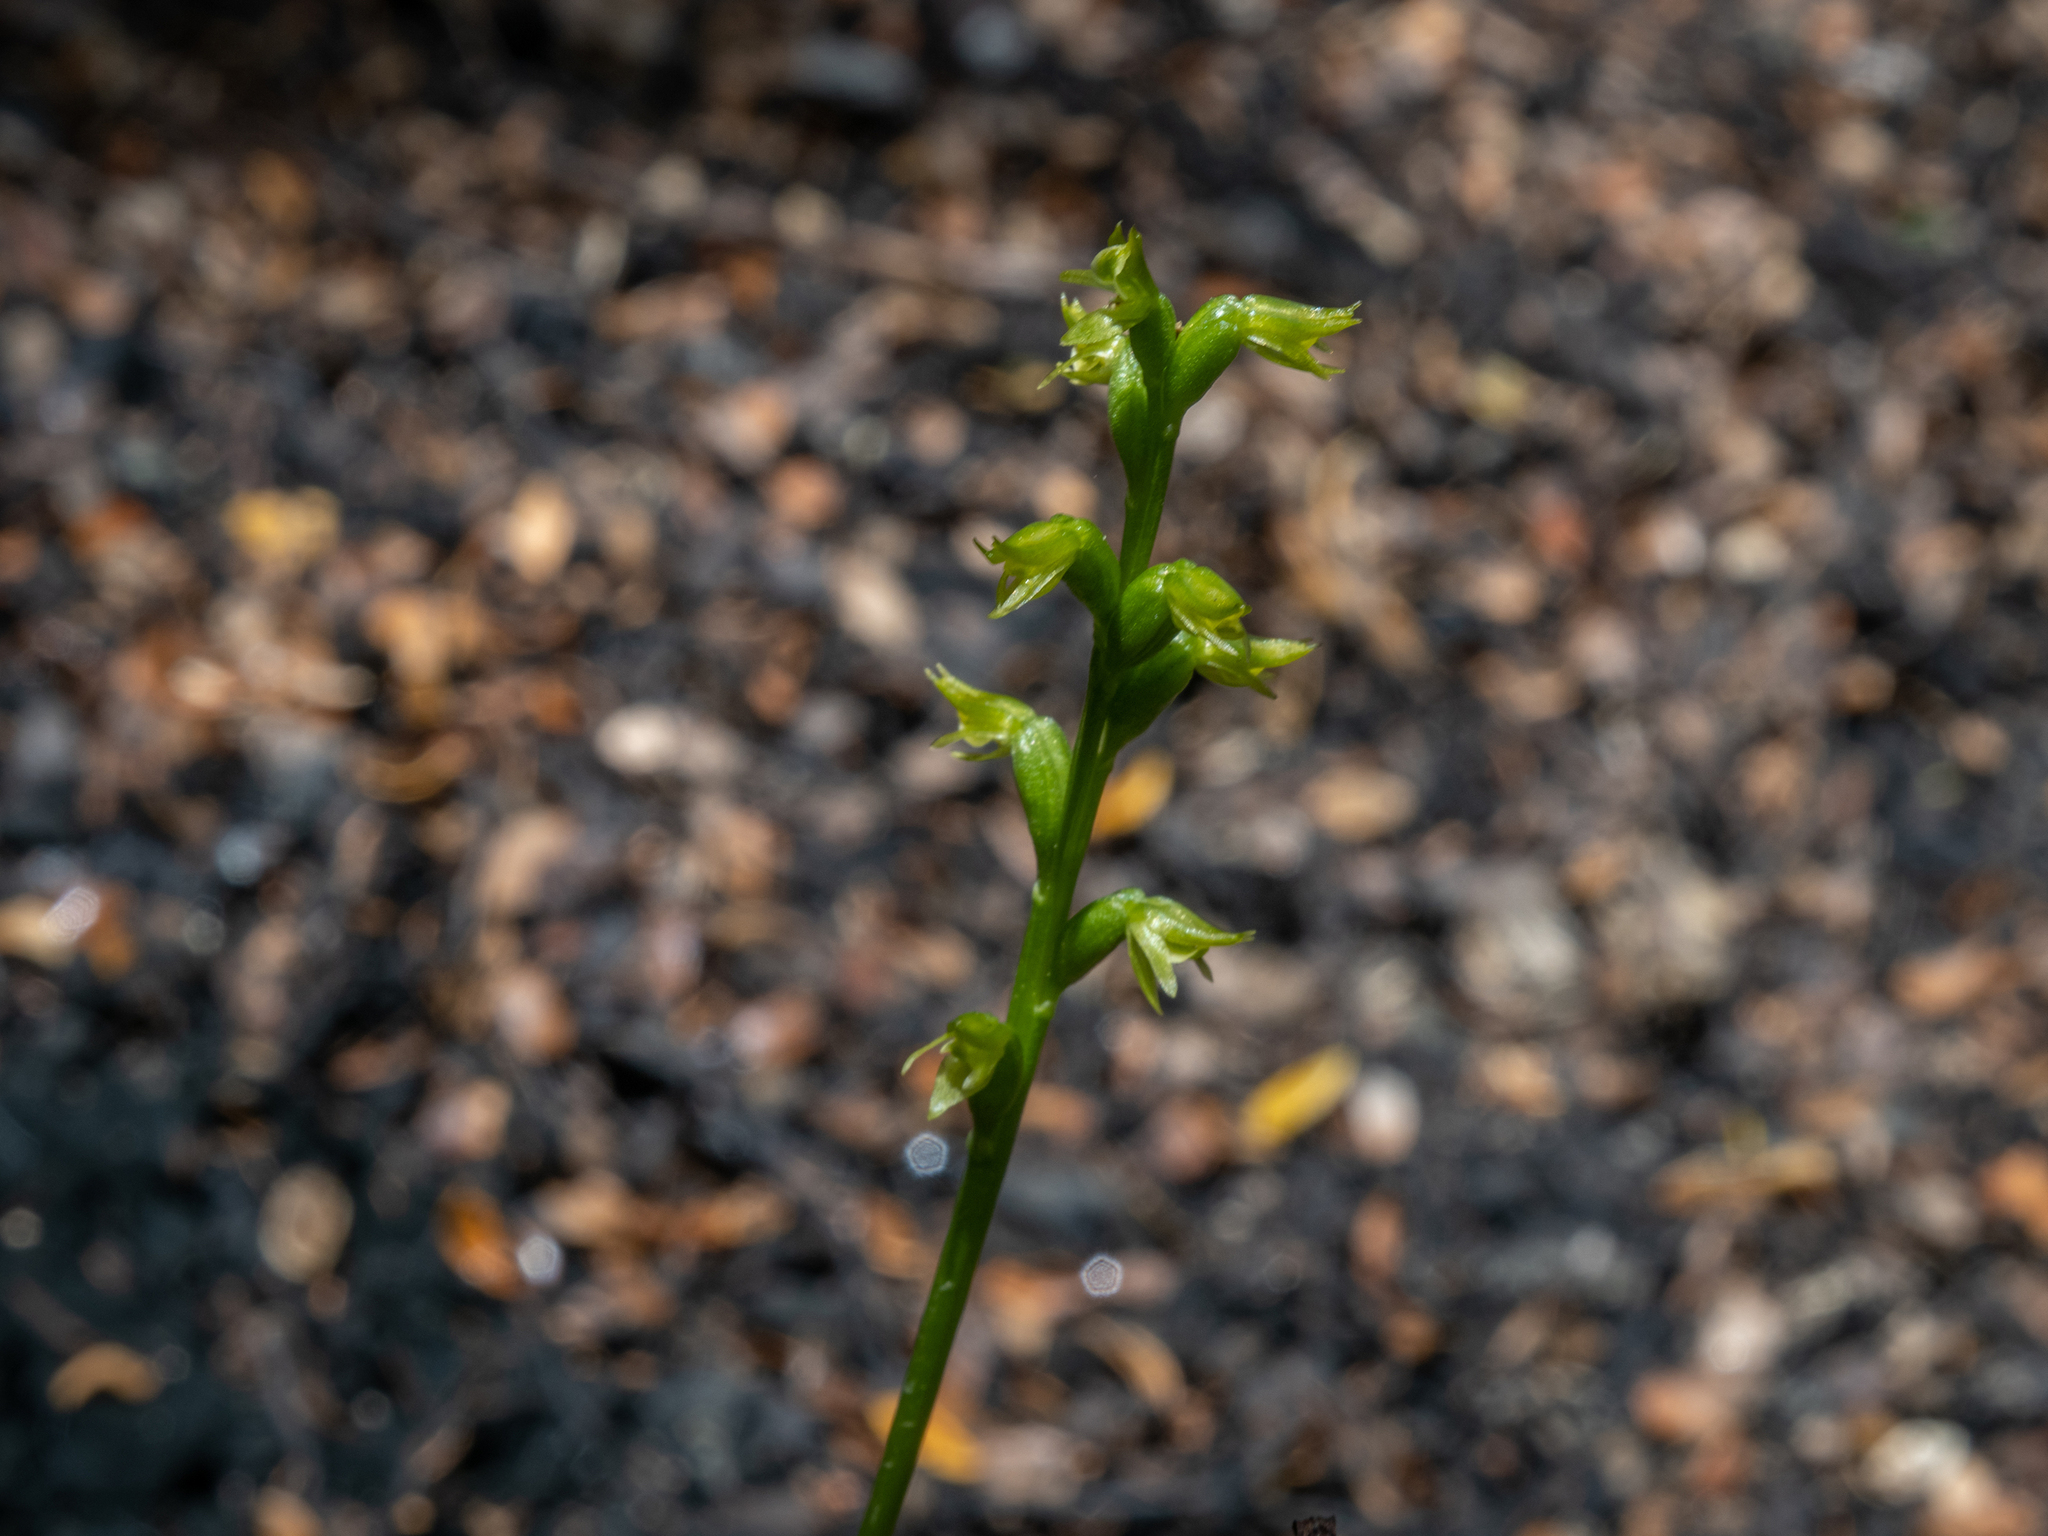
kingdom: Plantae
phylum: Tracheophyta
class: Liliopsida
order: Asparagales
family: Orchidaceae
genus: Prasophyllum
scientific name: Prasophyllum colensoi
